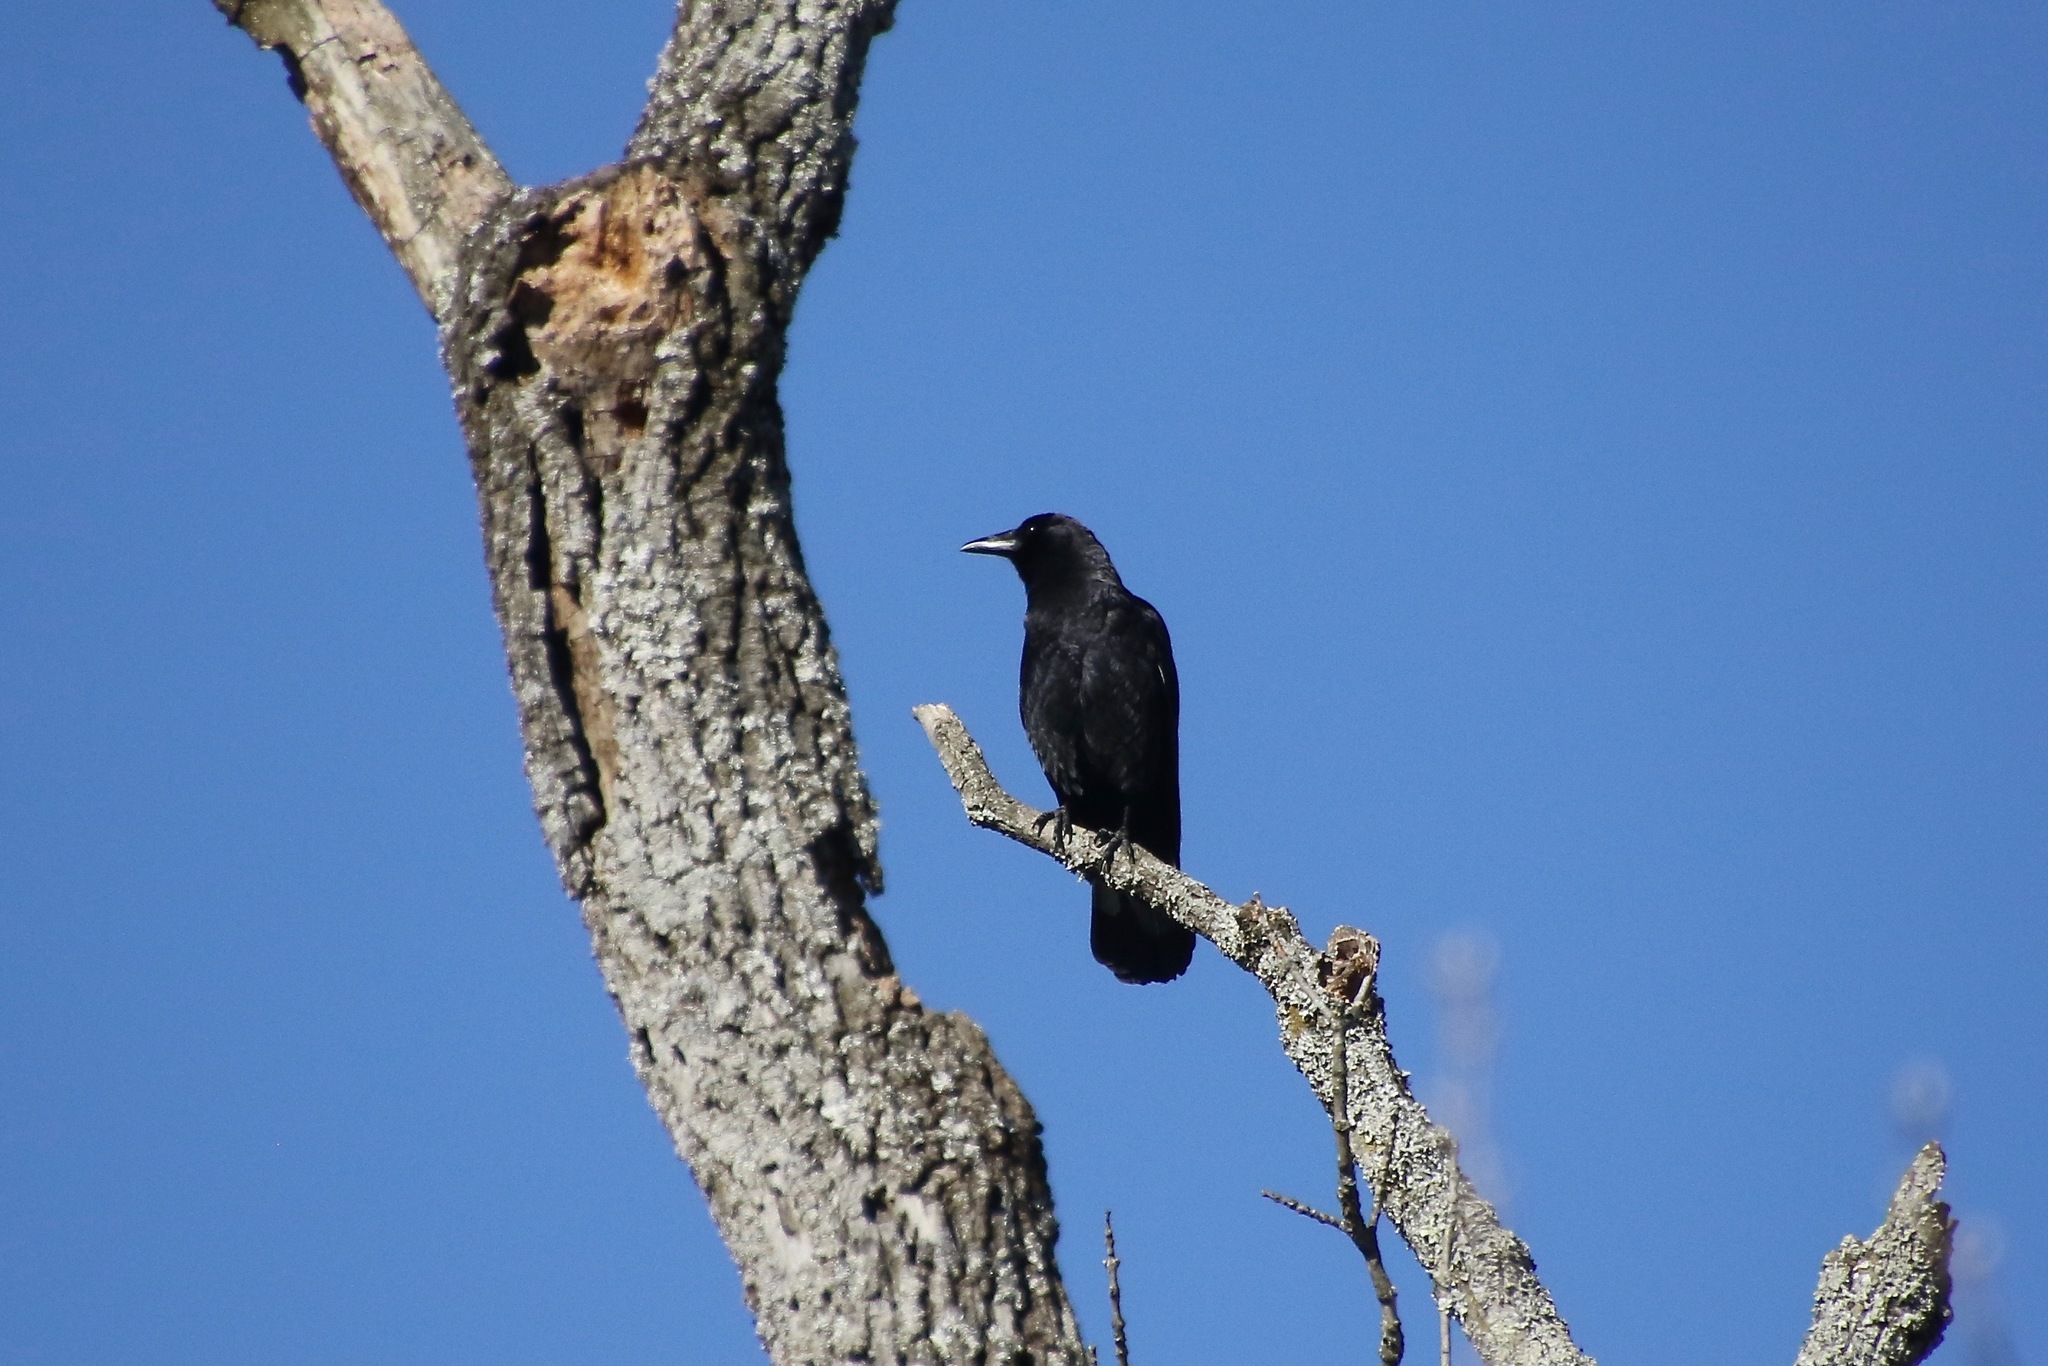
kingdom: Animalia
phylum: Chordata
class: Aves
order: Passeriformes
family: Corvidae
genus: Corvus
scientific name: Corvus brachyrhynchos
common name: American crow
